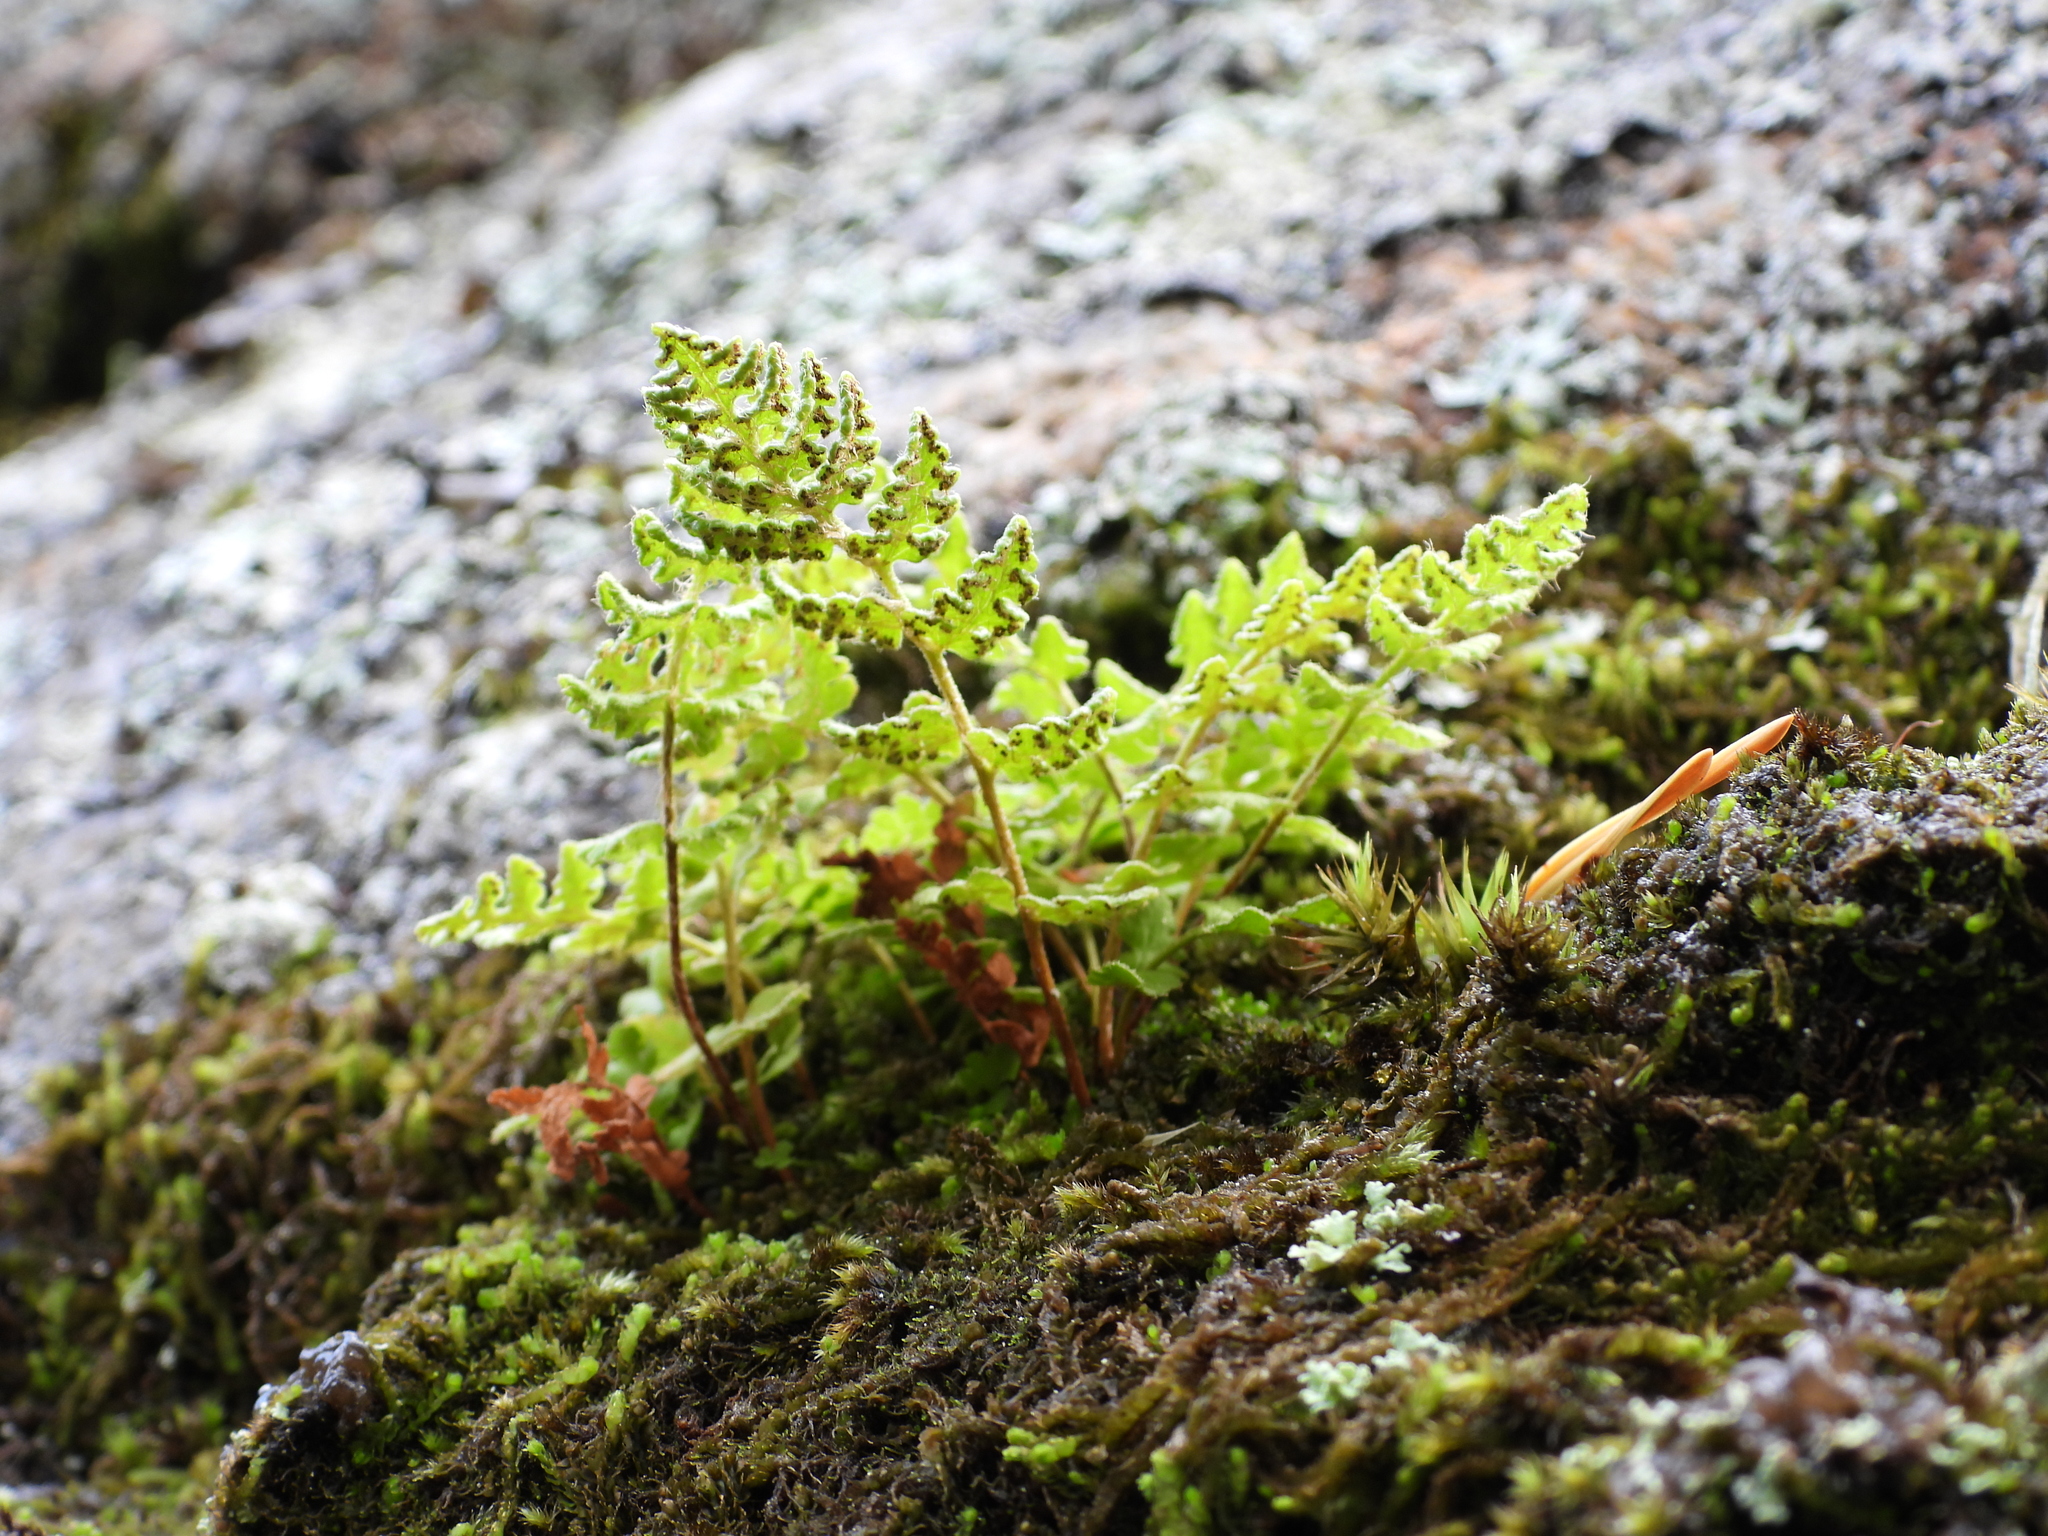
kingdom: Plantae
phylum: Tracheophyta
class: Polypodiopsida
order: Polypodiales
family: Woodsiaceae
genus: Woodsia
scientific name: Woodsia ilvensis
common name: Fragrant woodsia
